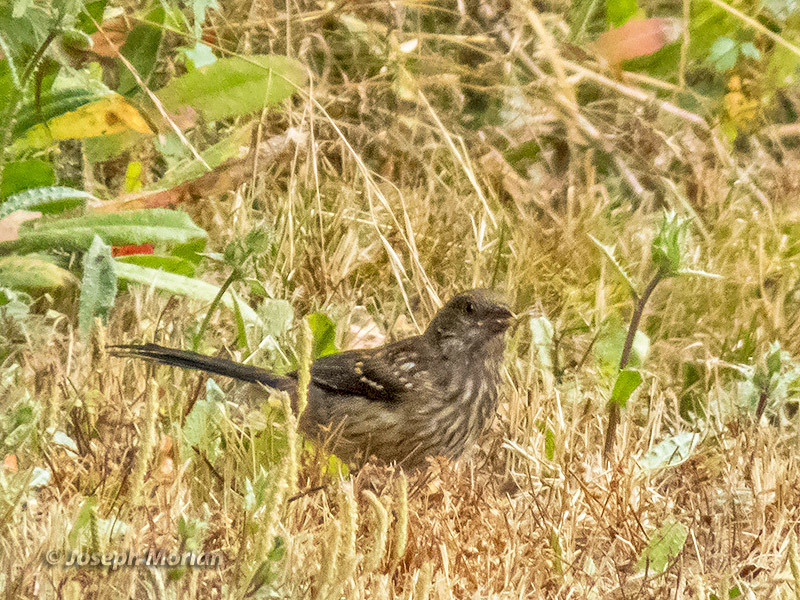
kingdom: Animalia
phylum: Chordata
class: Aves
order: Passeriformes
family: Passerellidae
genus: Pipilo
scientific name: Pipilo maculatus
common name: Spotted towhee
